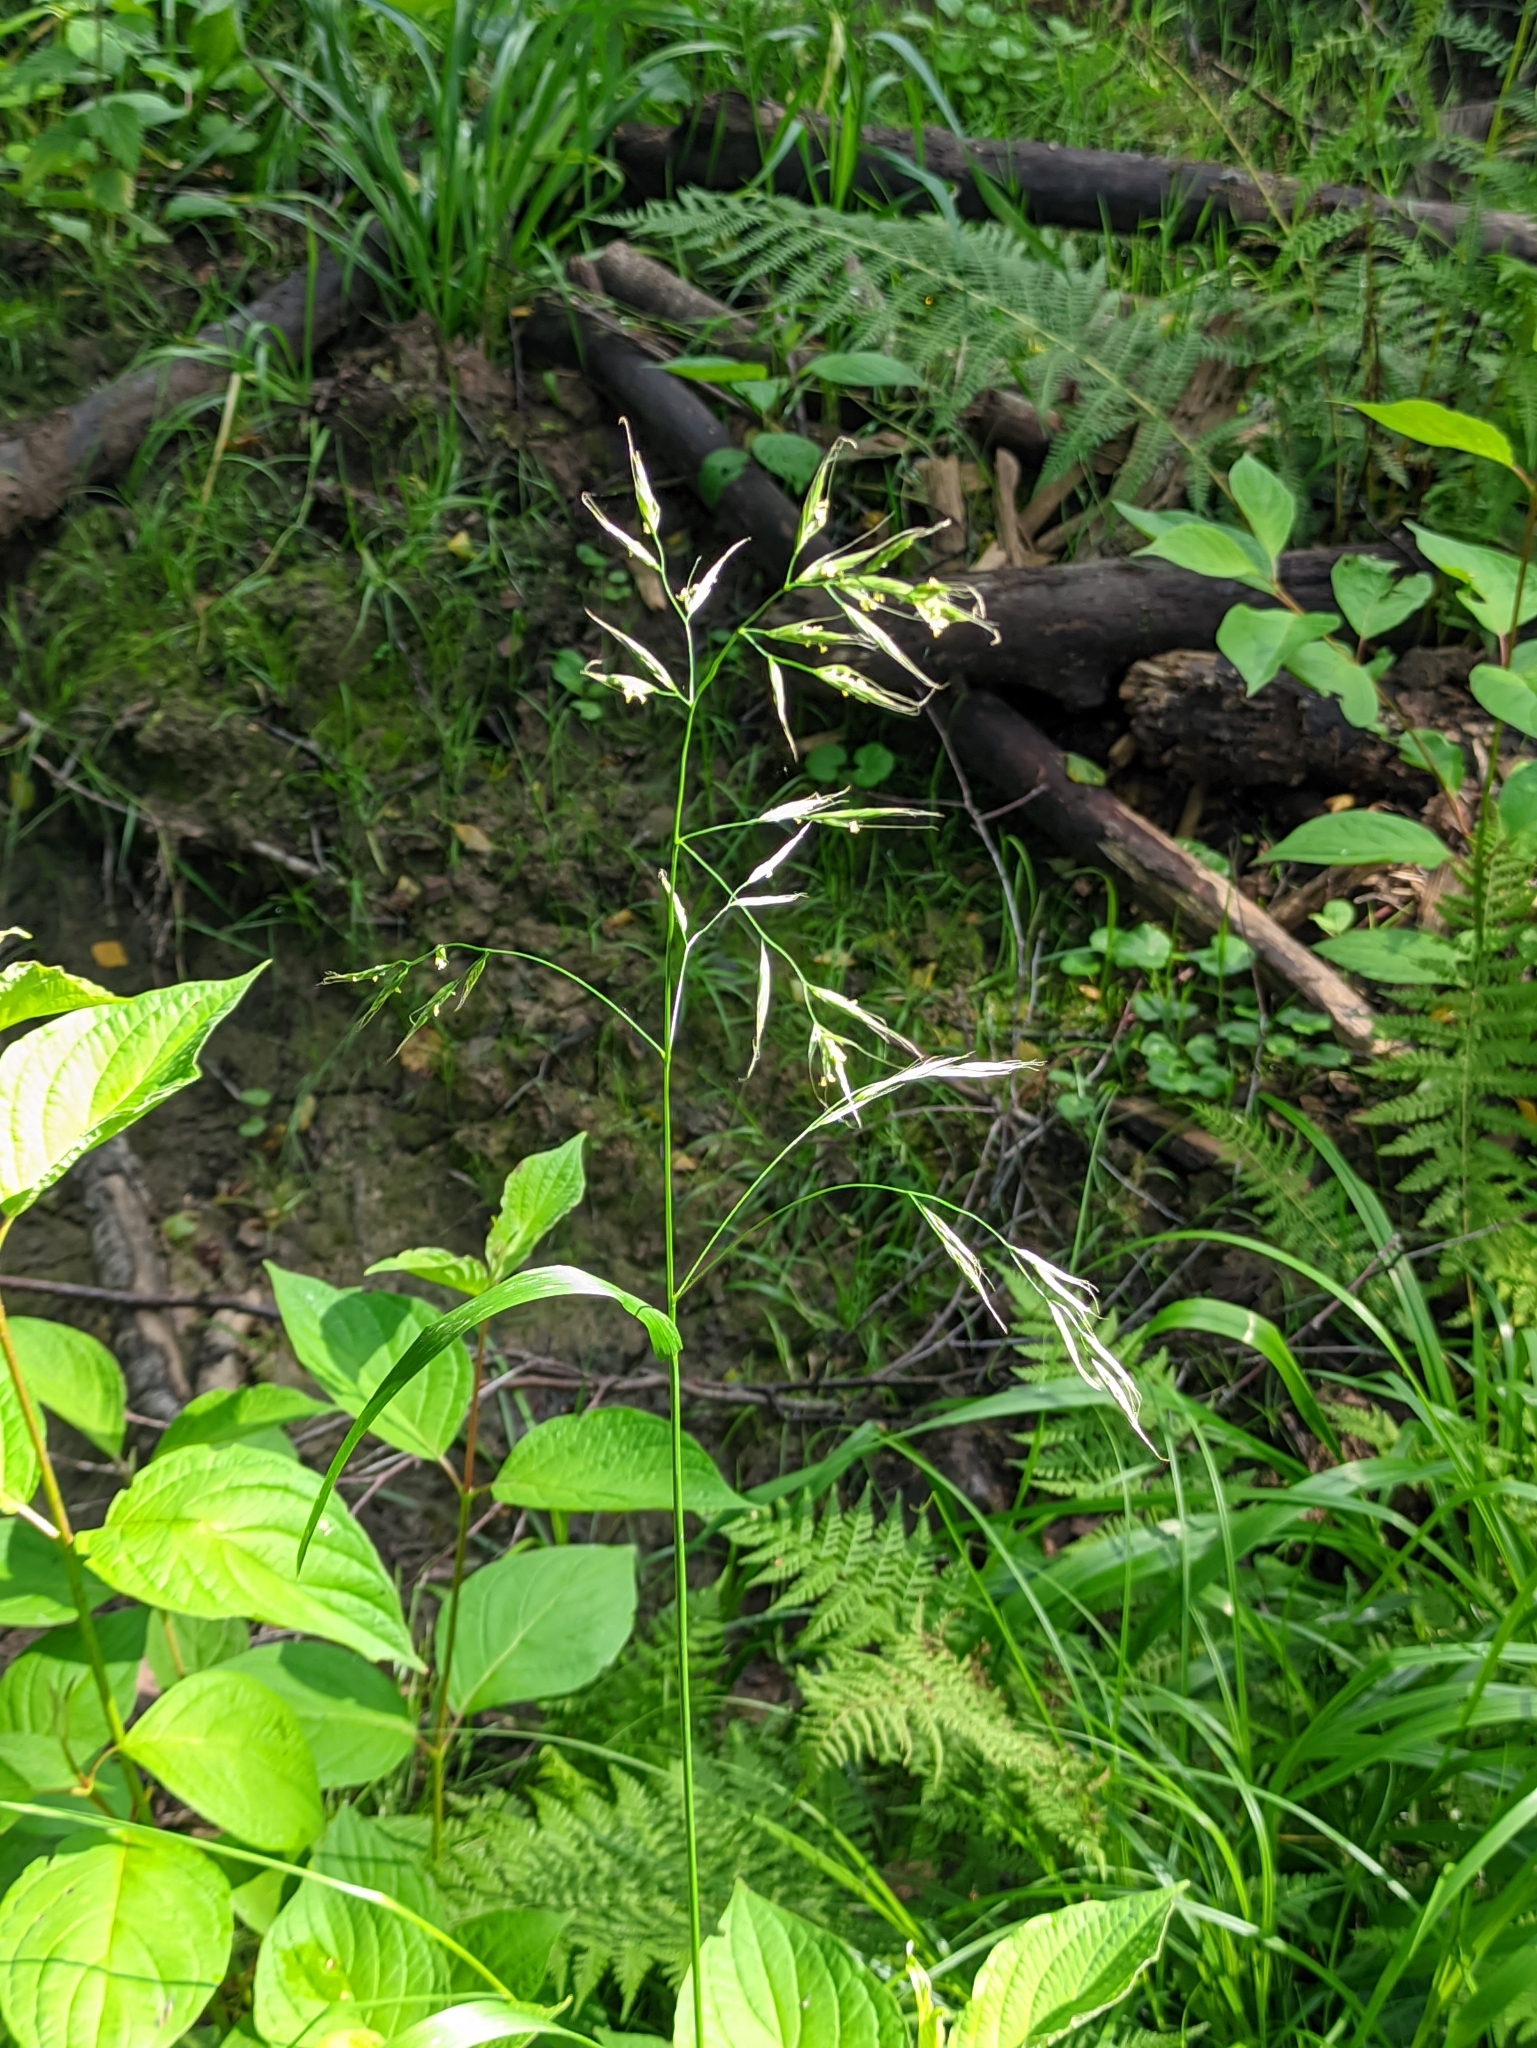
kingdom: Plantae
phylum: Tracheophyta
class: Liliopsida
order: Poales
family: Poaceae
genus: Lolium
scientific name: Lolium giganteum
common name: Giant fescue
